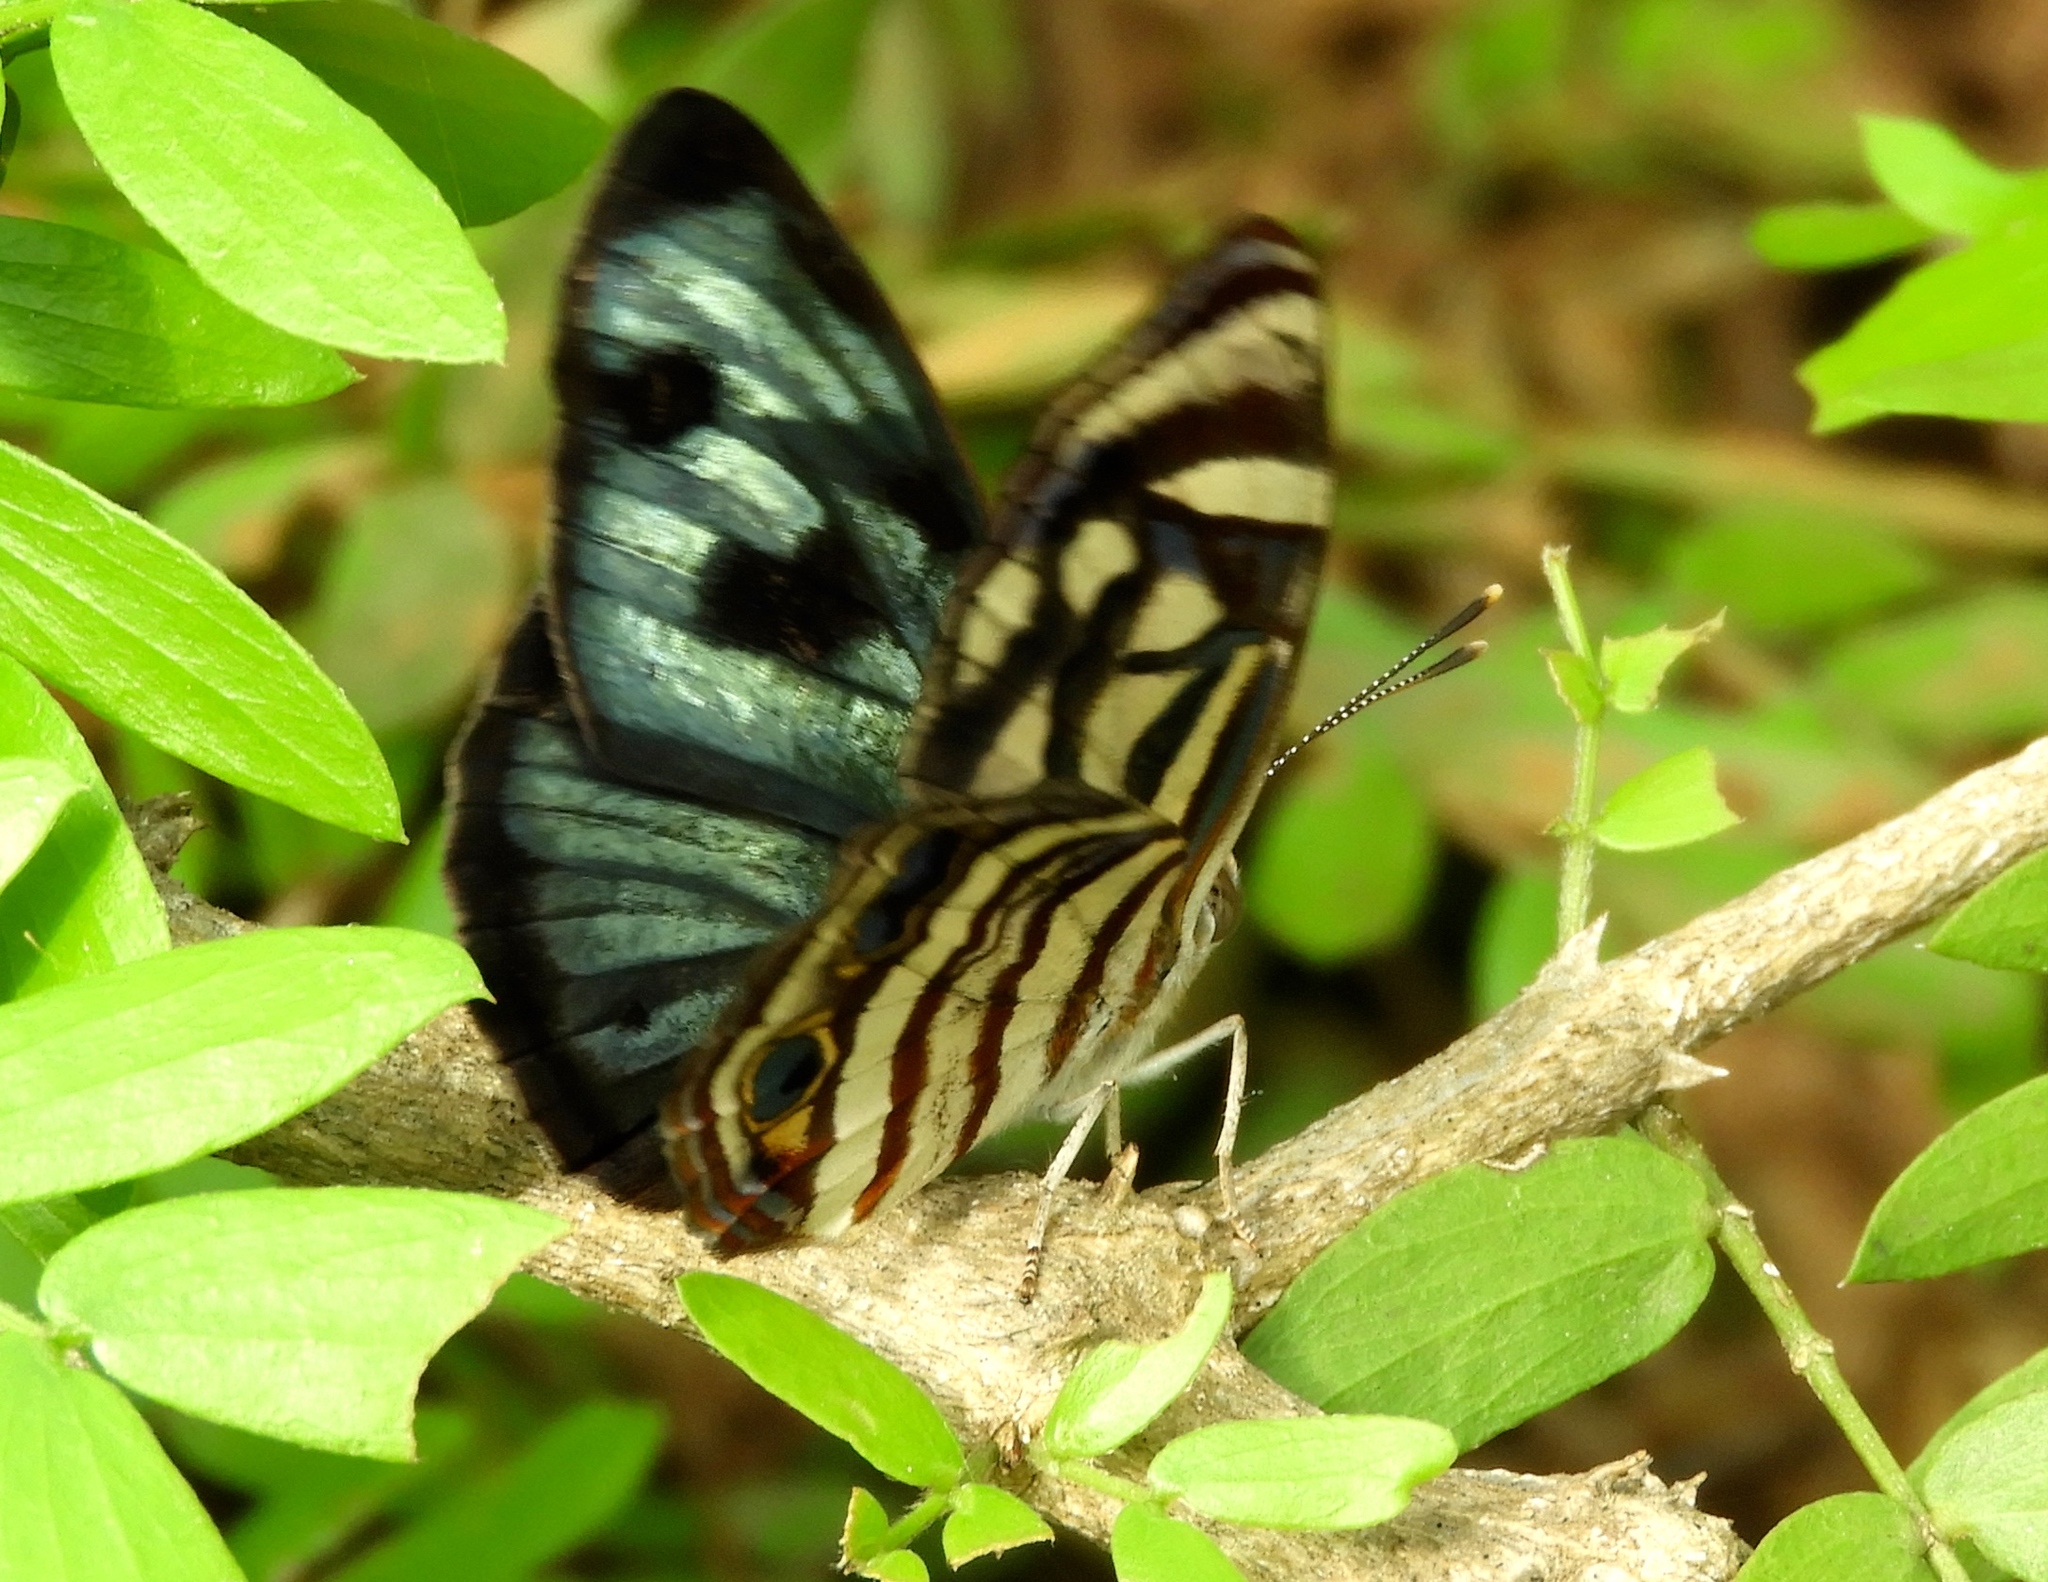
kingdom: Animalia
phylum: Arthropoda
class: Insecta
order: Lepidoptera
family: Nymphalidae
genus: Dynamine
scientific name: Dynamine mylitta
